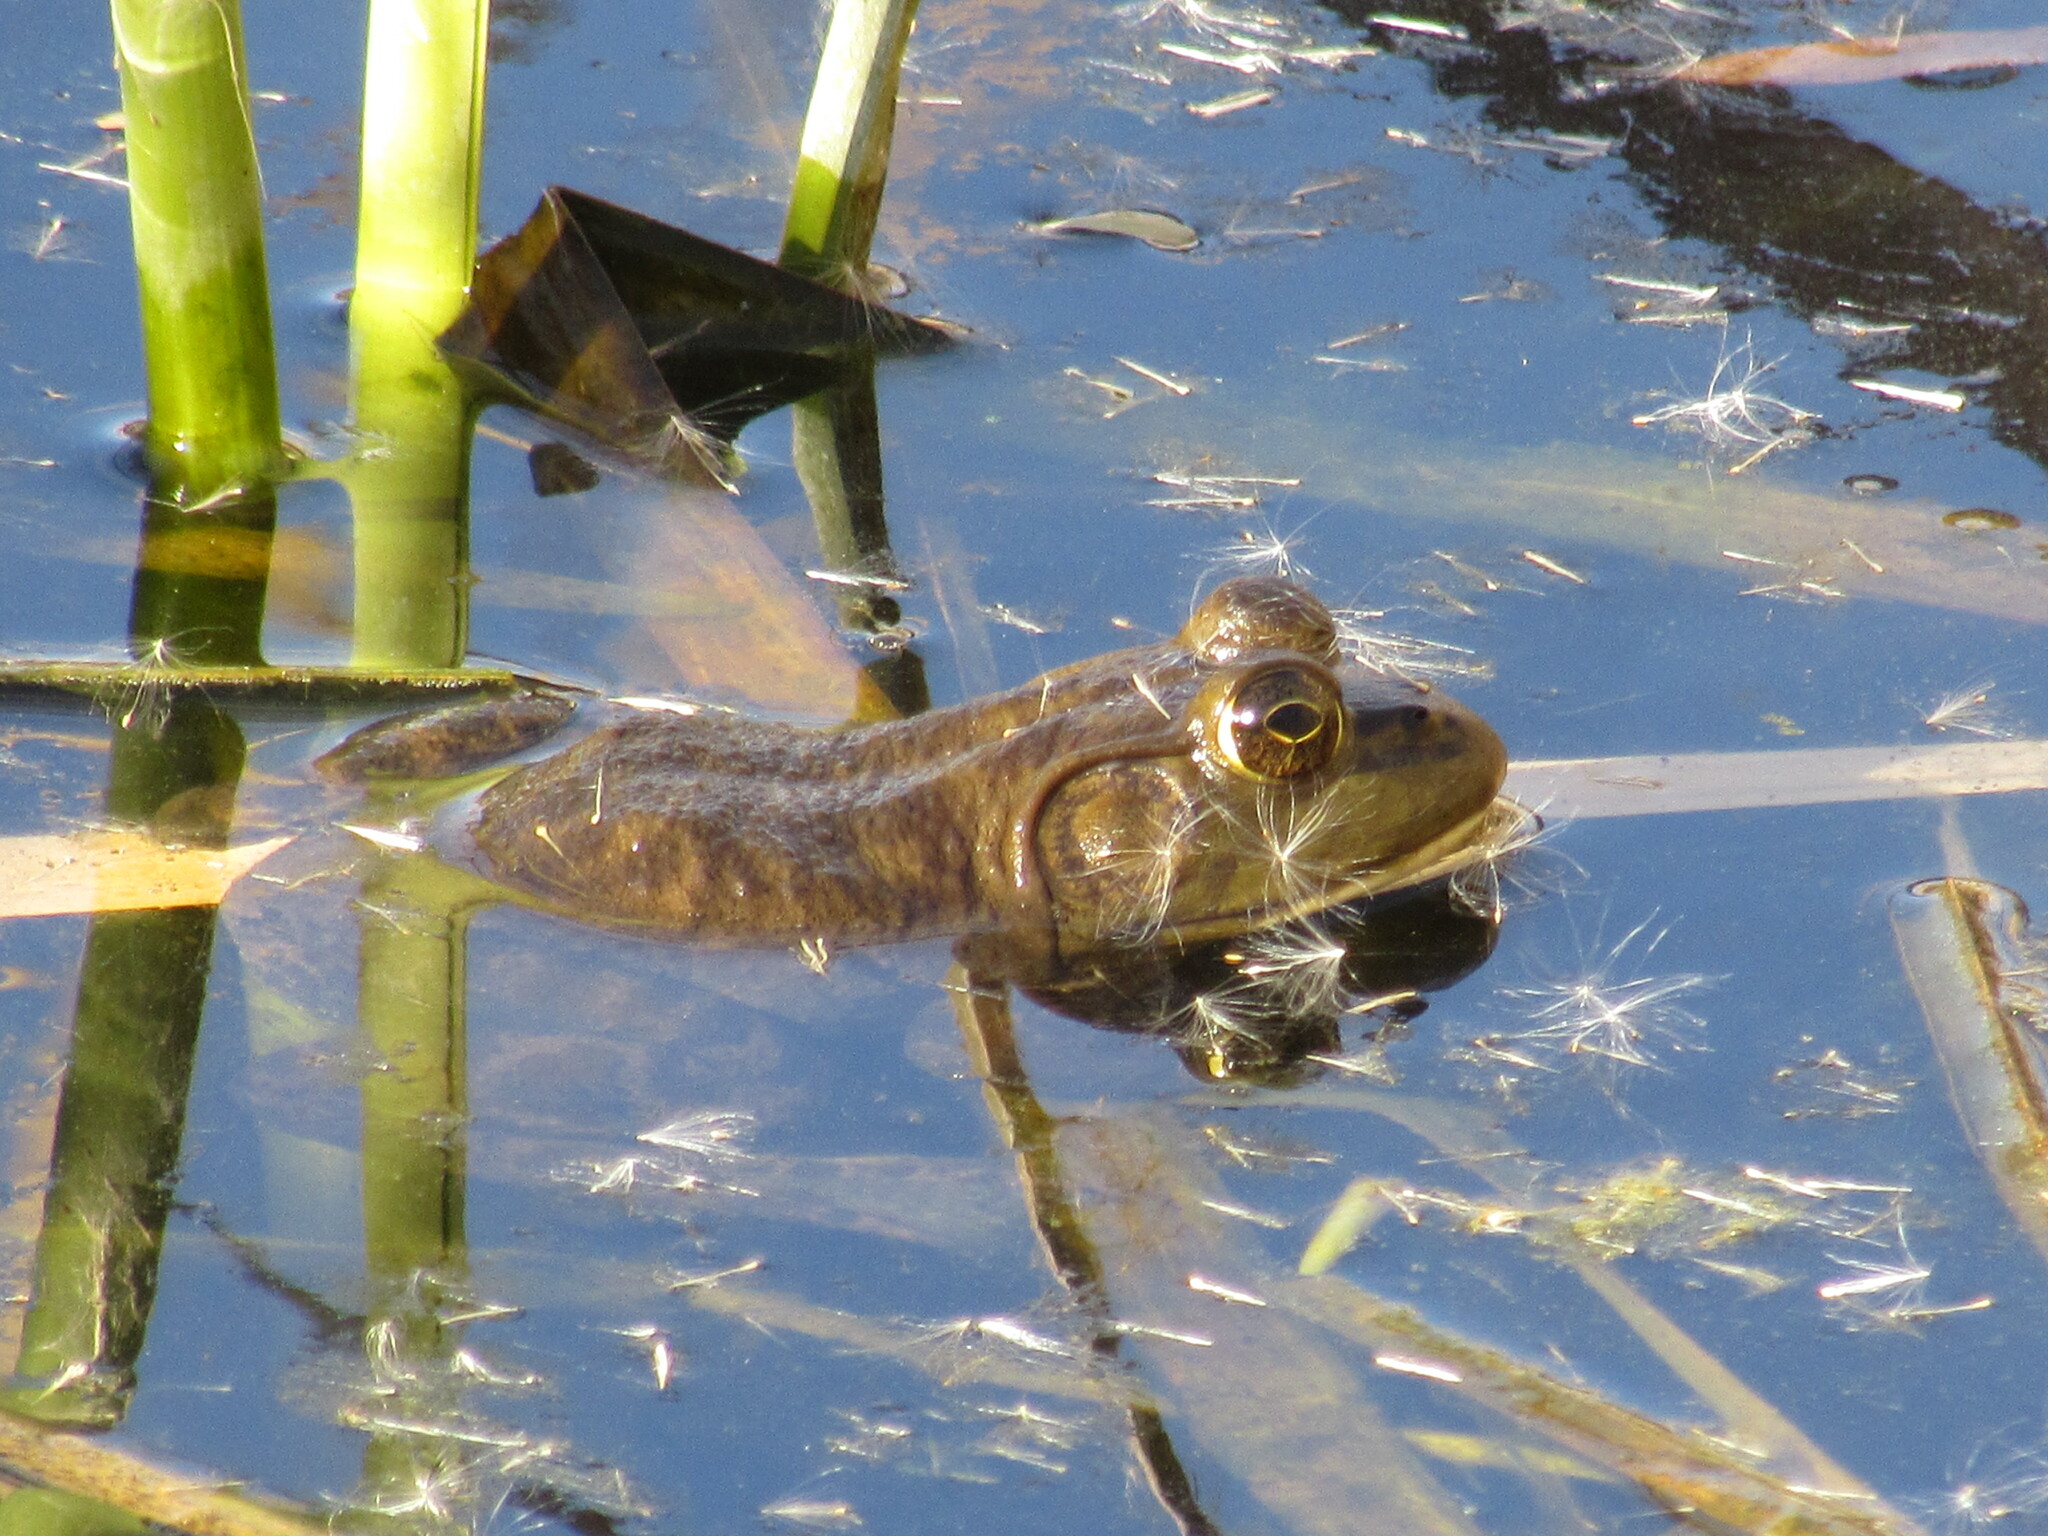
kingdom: Animalia
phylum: Chordata
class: Amphibia
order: Anura
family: Ranidae
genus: Lithobates
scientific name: Lithobates catesbeianus
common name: American bullfrog
